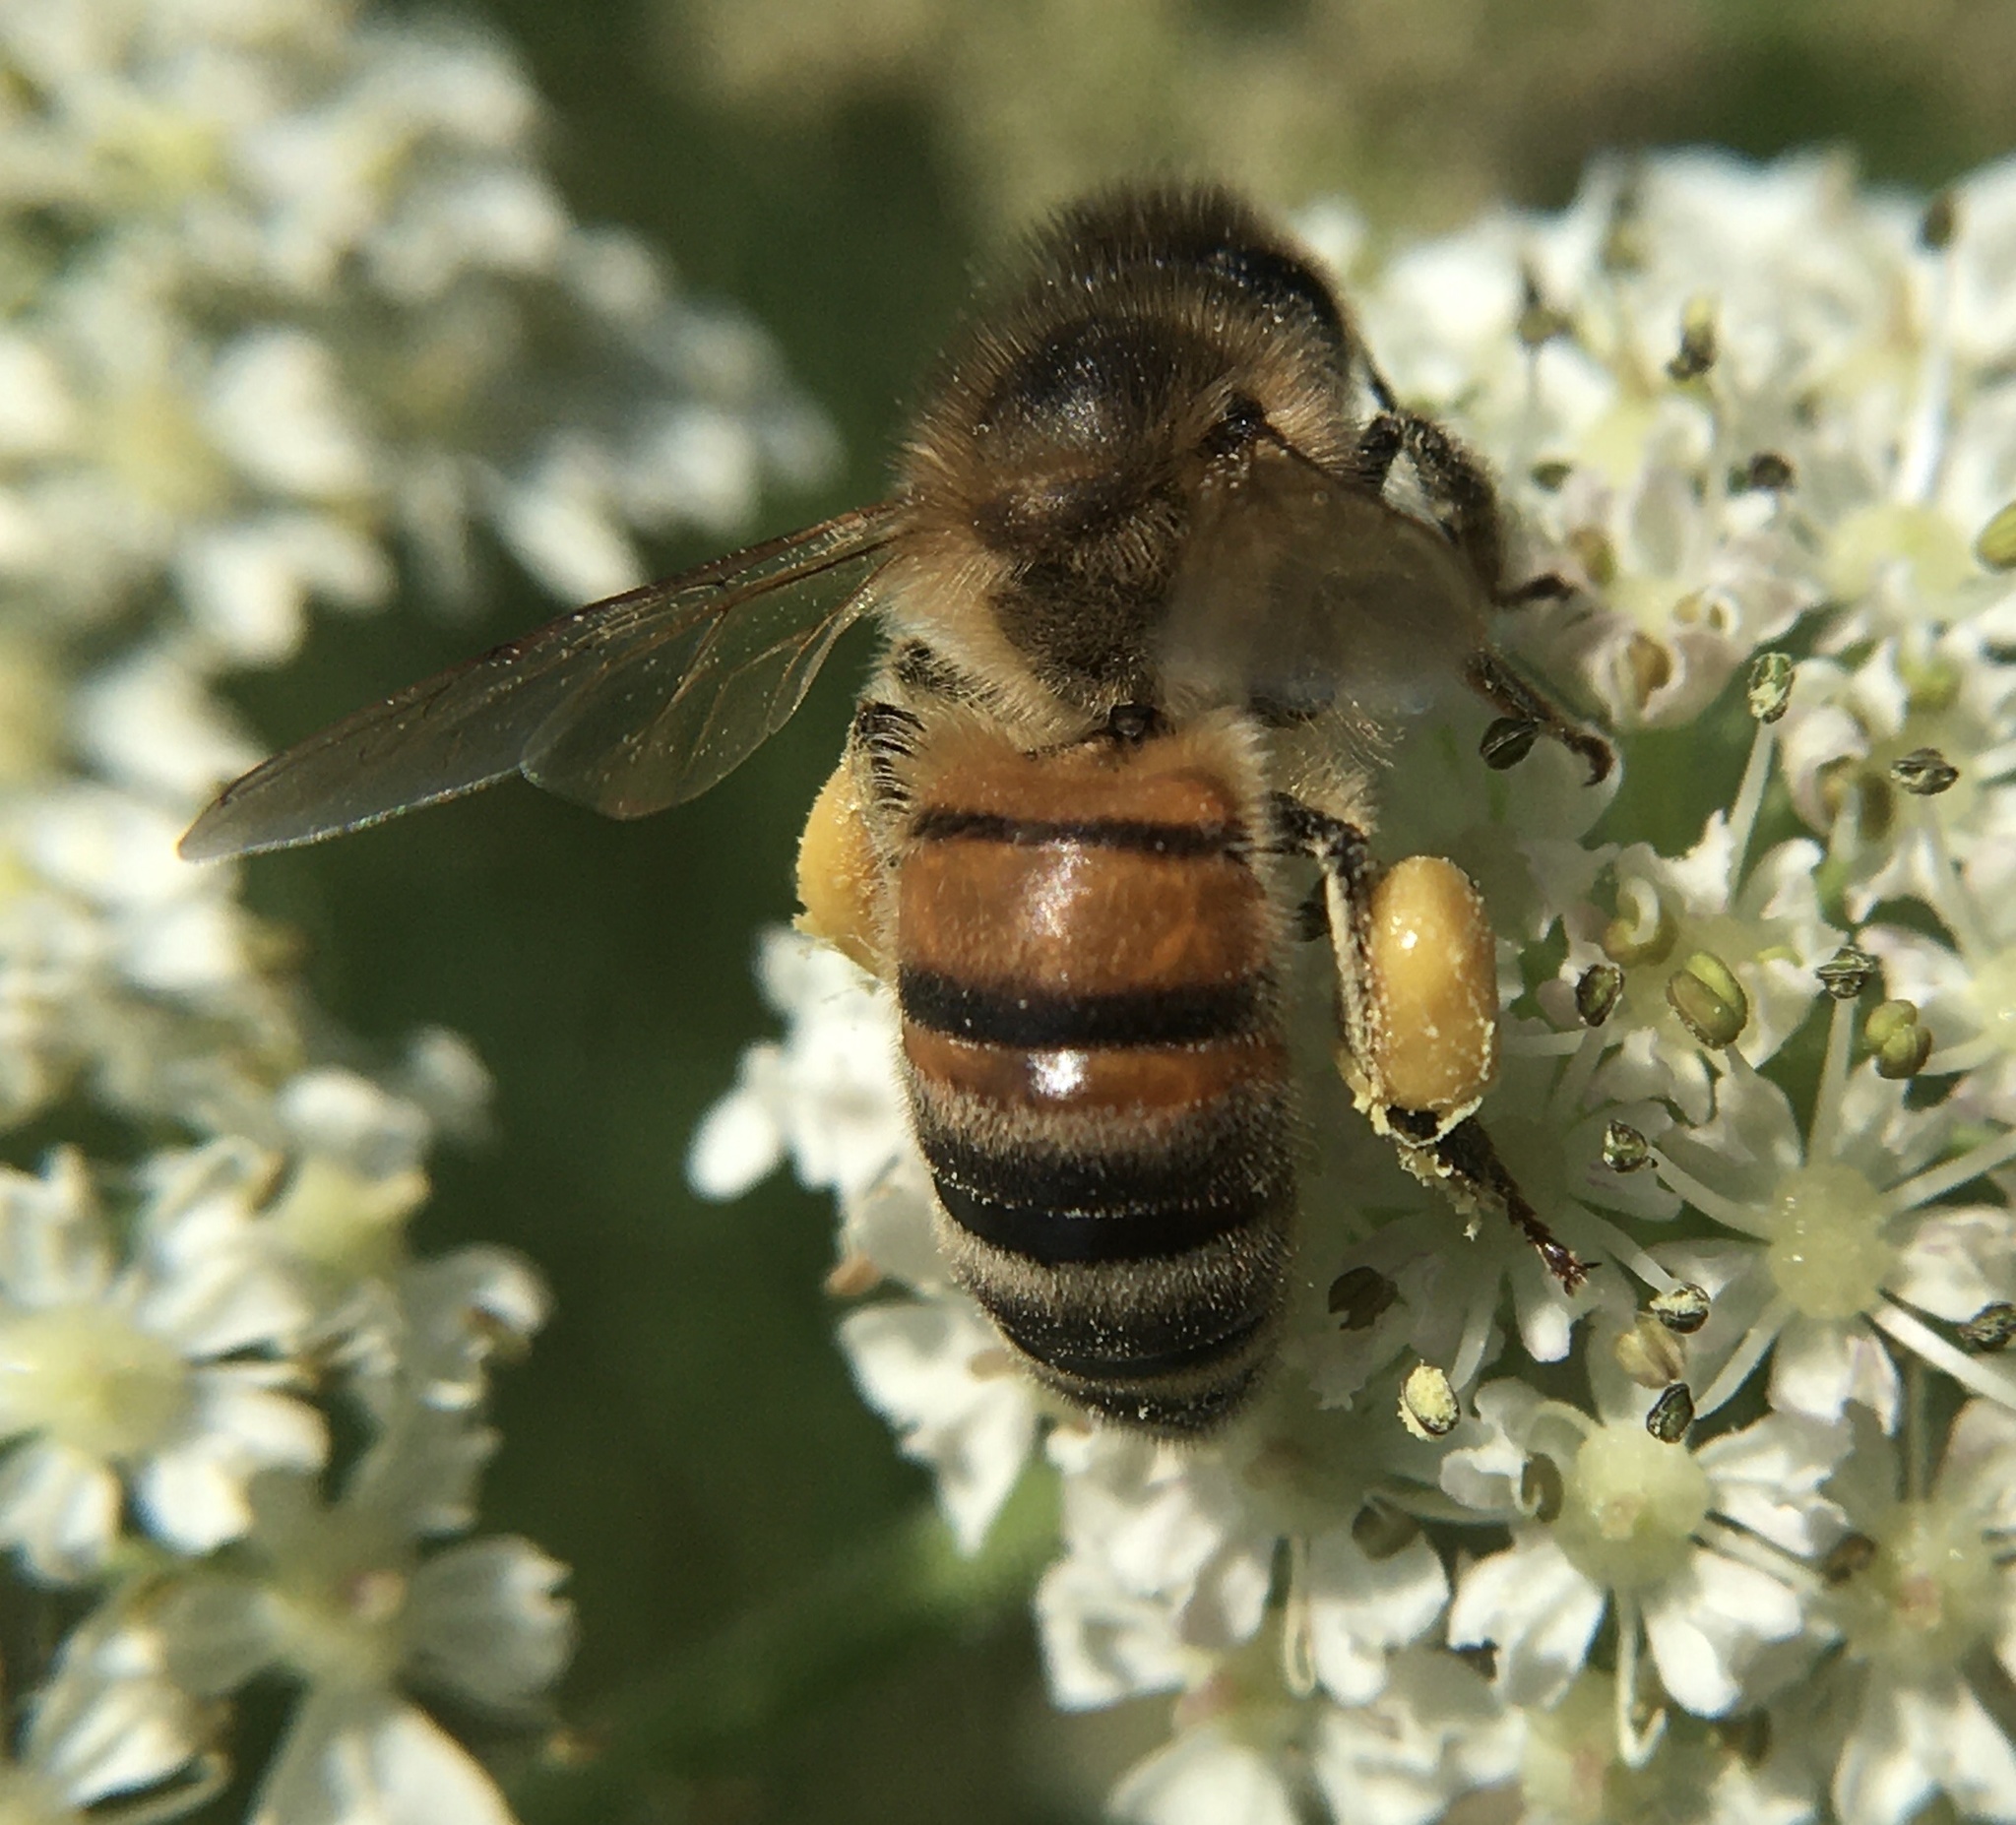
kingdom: Animalia
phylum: Arthropoda
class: Insecta
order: Hymenoptera
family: Apidae
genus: Apis
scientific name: Apis mellifera
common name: Honey bee
